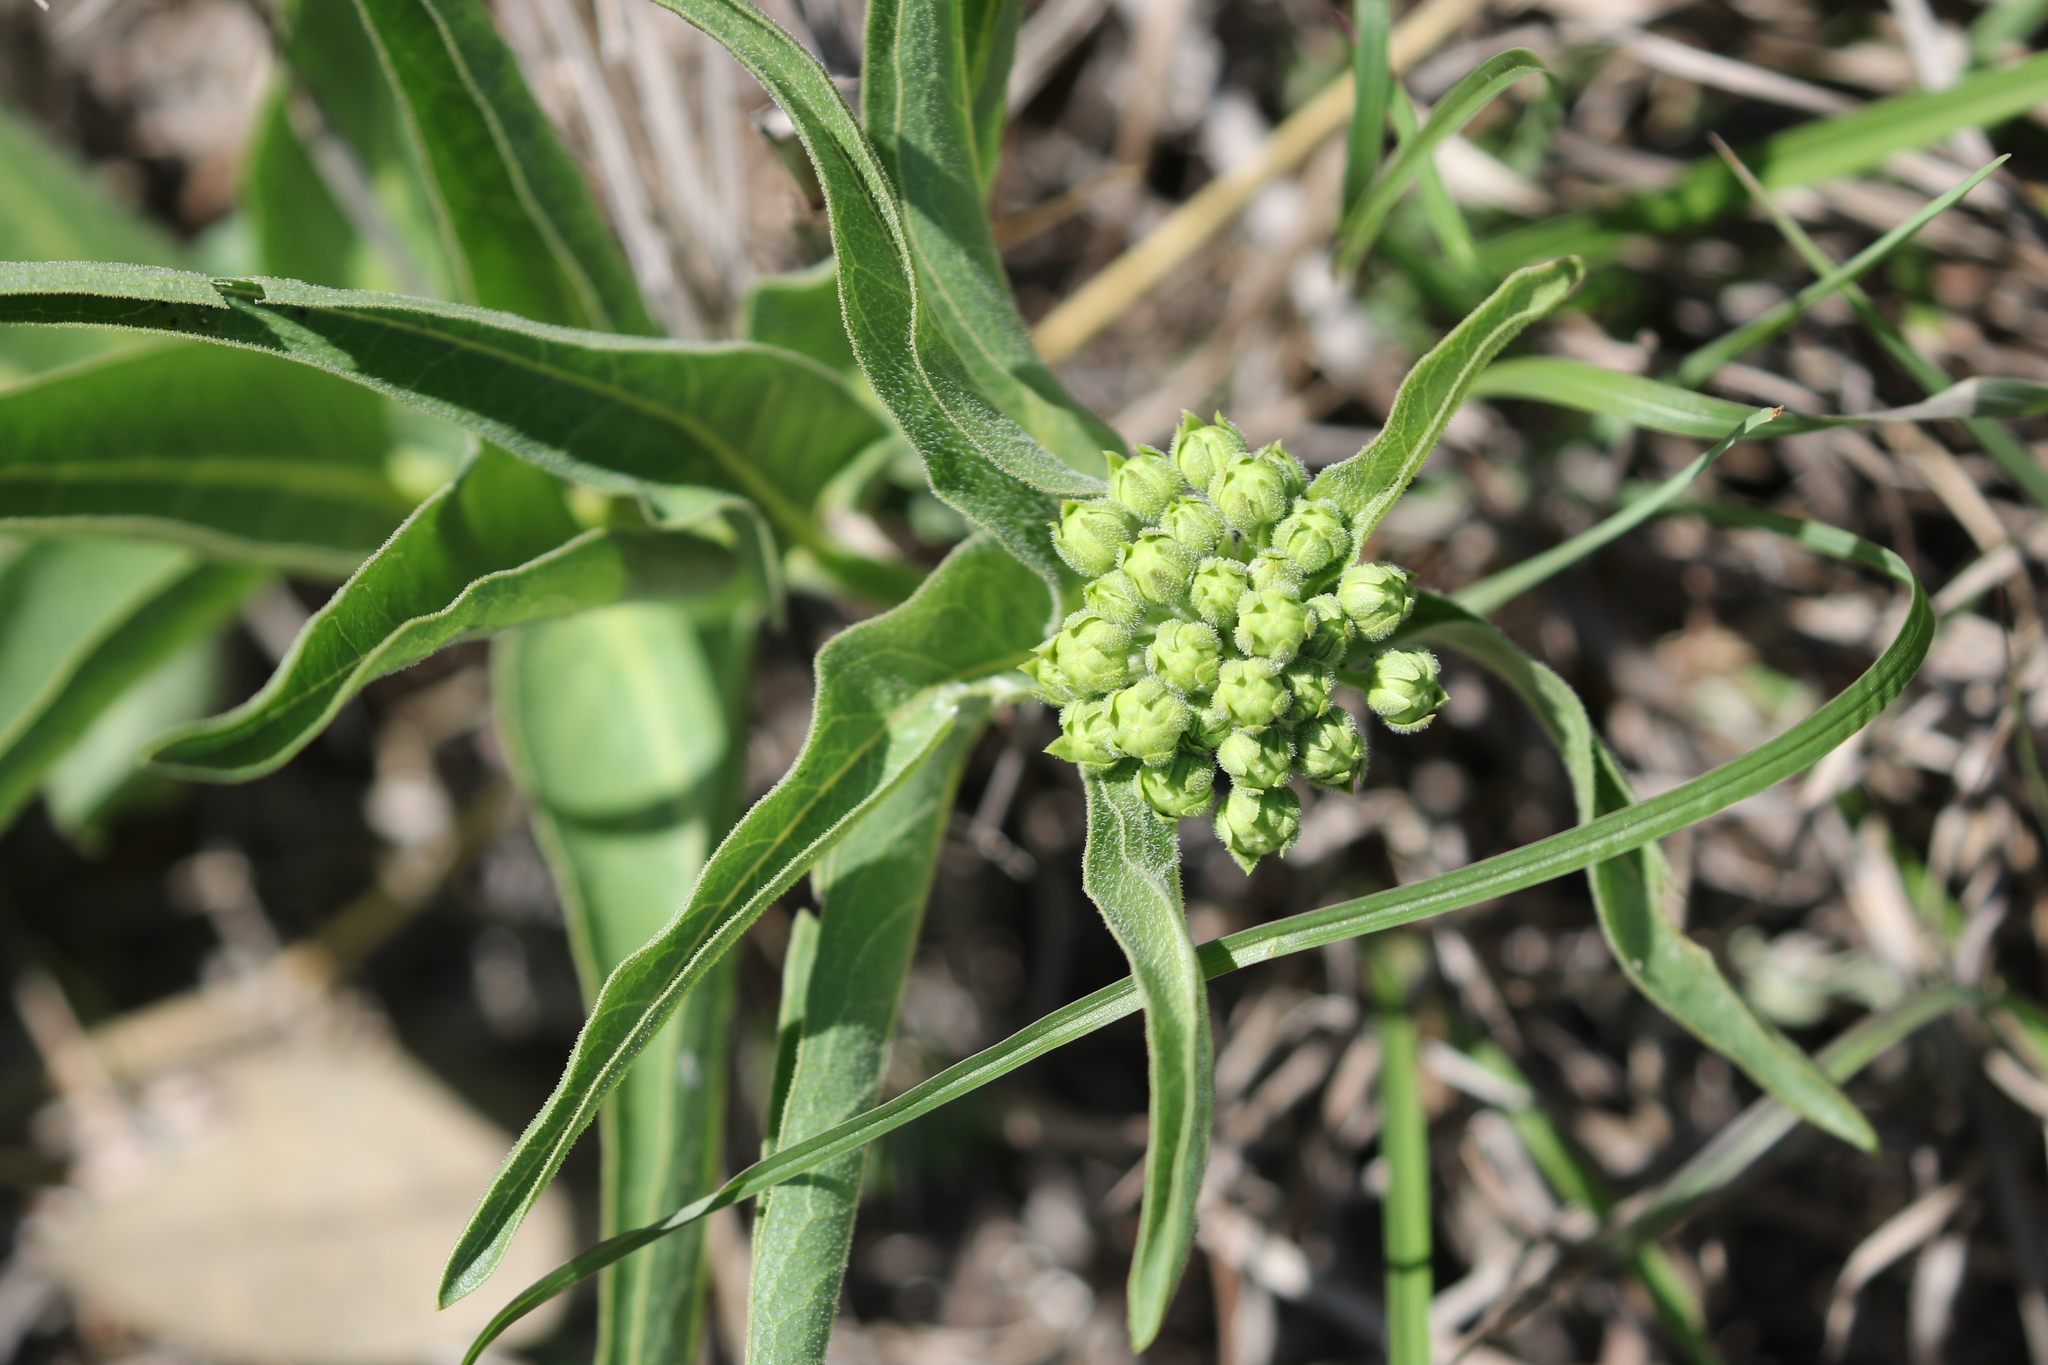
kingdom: Plantae
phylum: Tracheophyta
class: Magnoliopsida
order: Gentianales
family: Apocynaceae
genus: Asclepias
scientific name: Asclepias asperula
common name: Antelope horns
